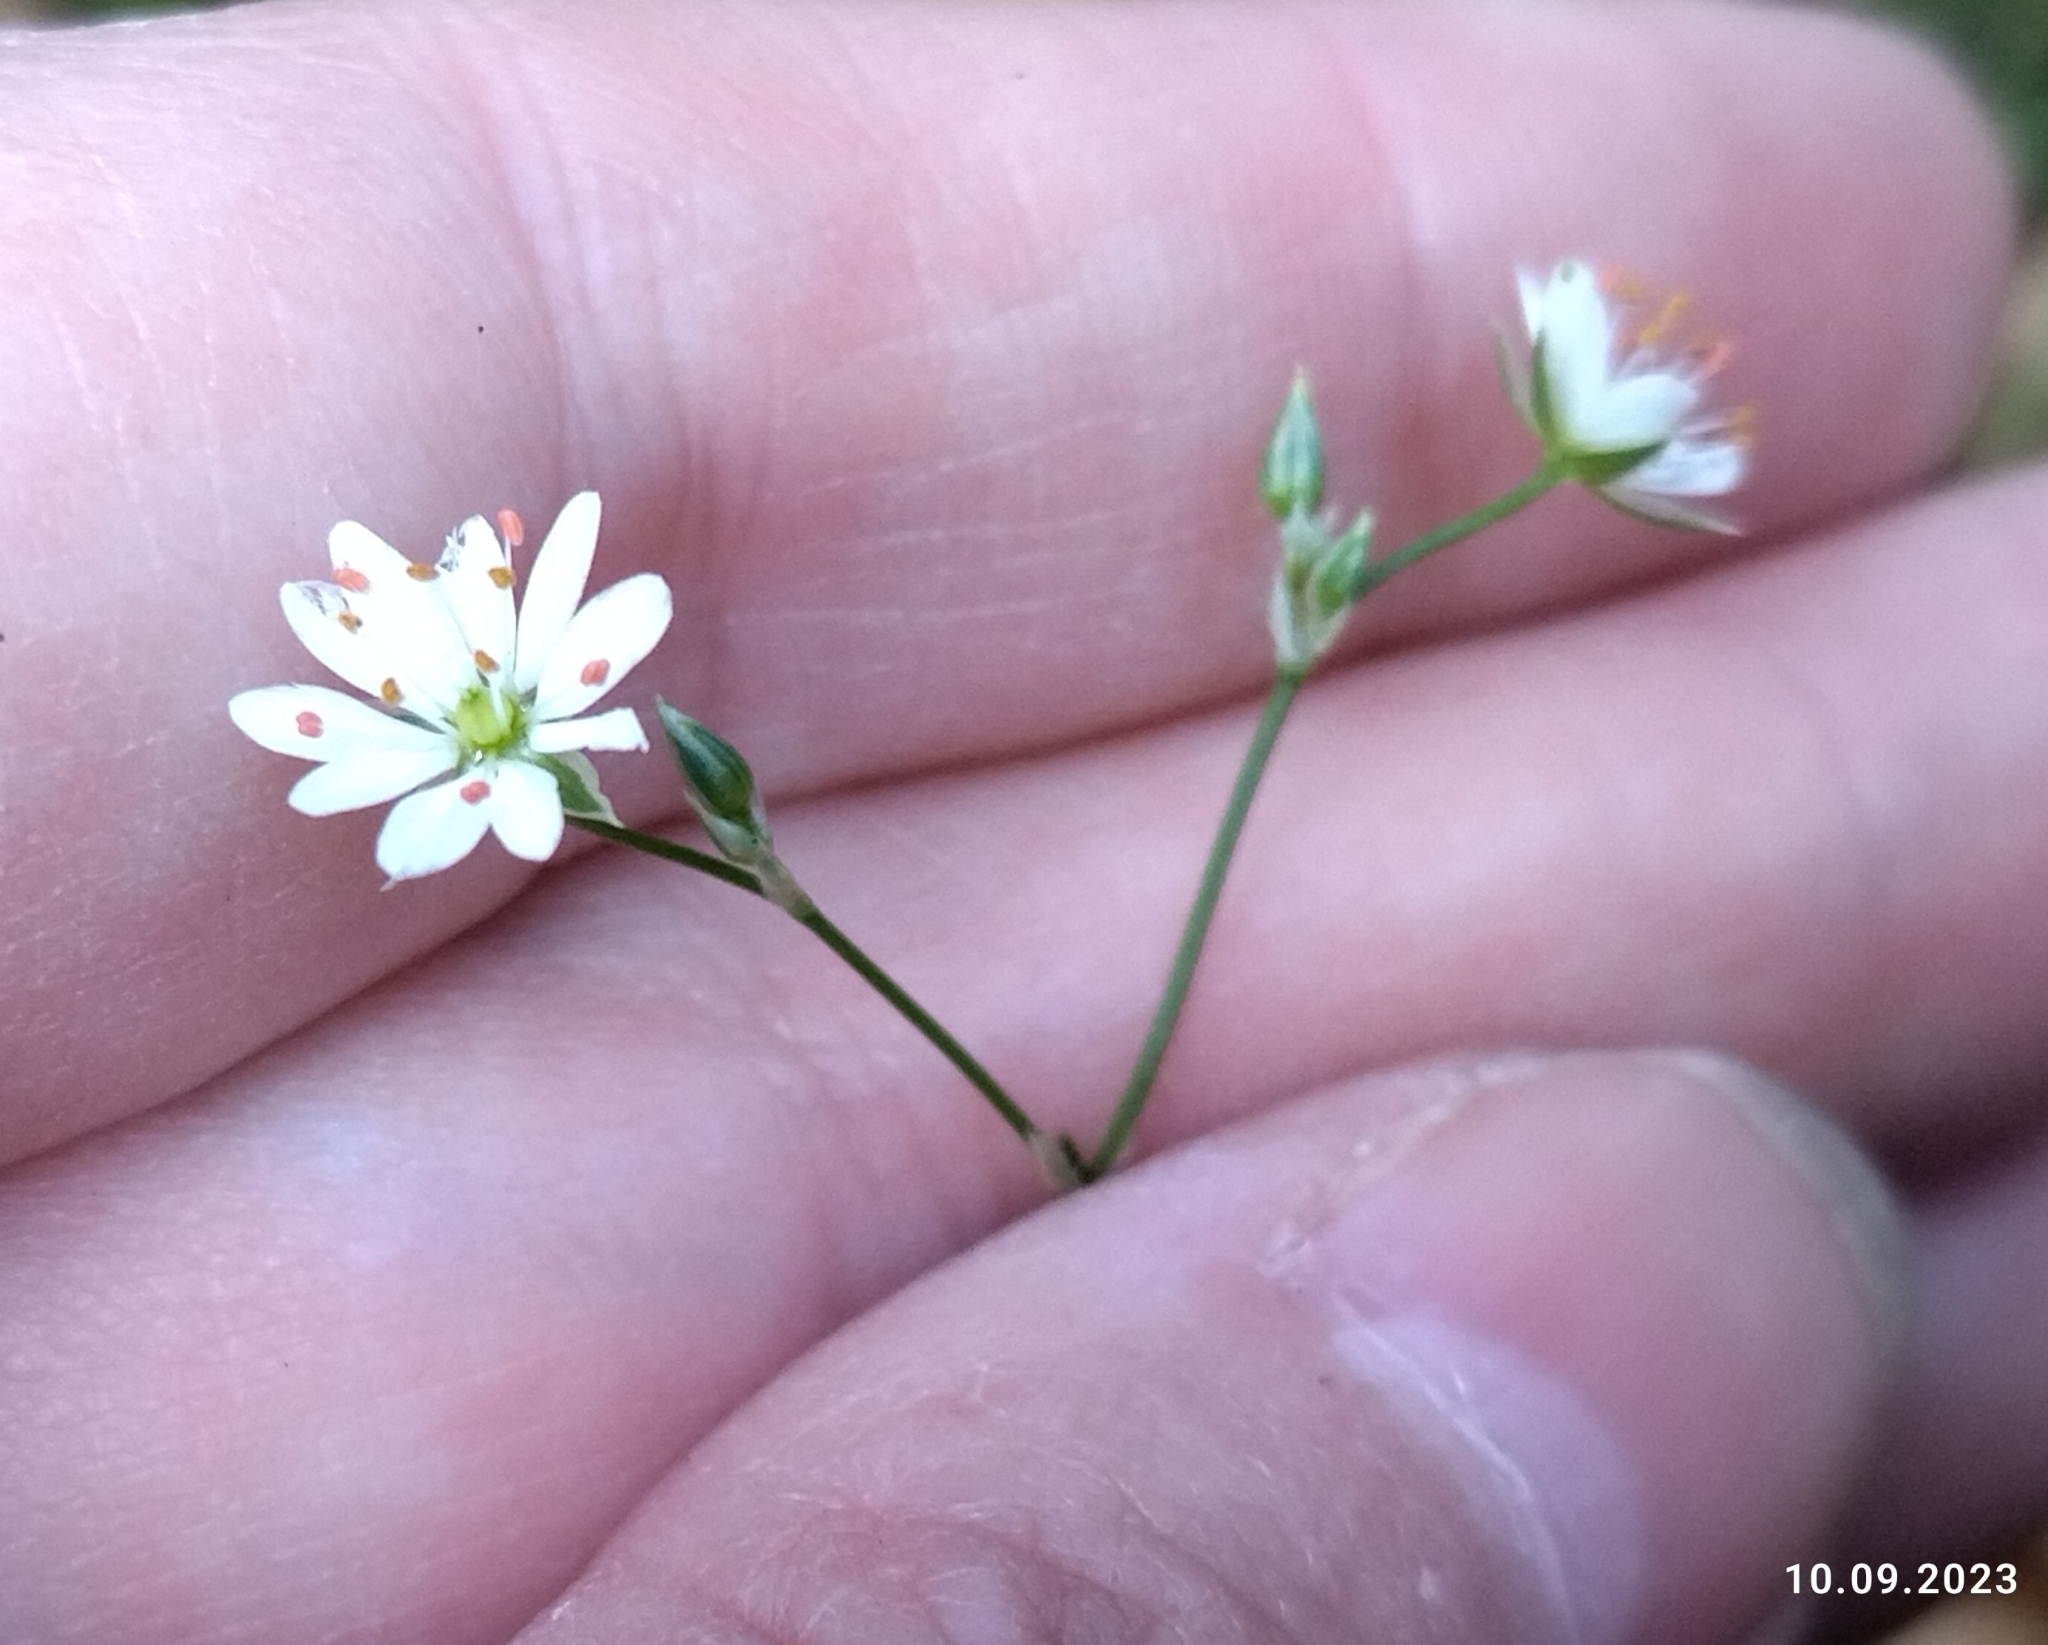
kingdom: Plantae
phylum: Tracheophyta
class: Magnoliopsida
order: Caryophyllales
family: Caryophyllaceae
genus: Stellaria
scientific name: Stellaria graminea
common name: Grass-like starwort
